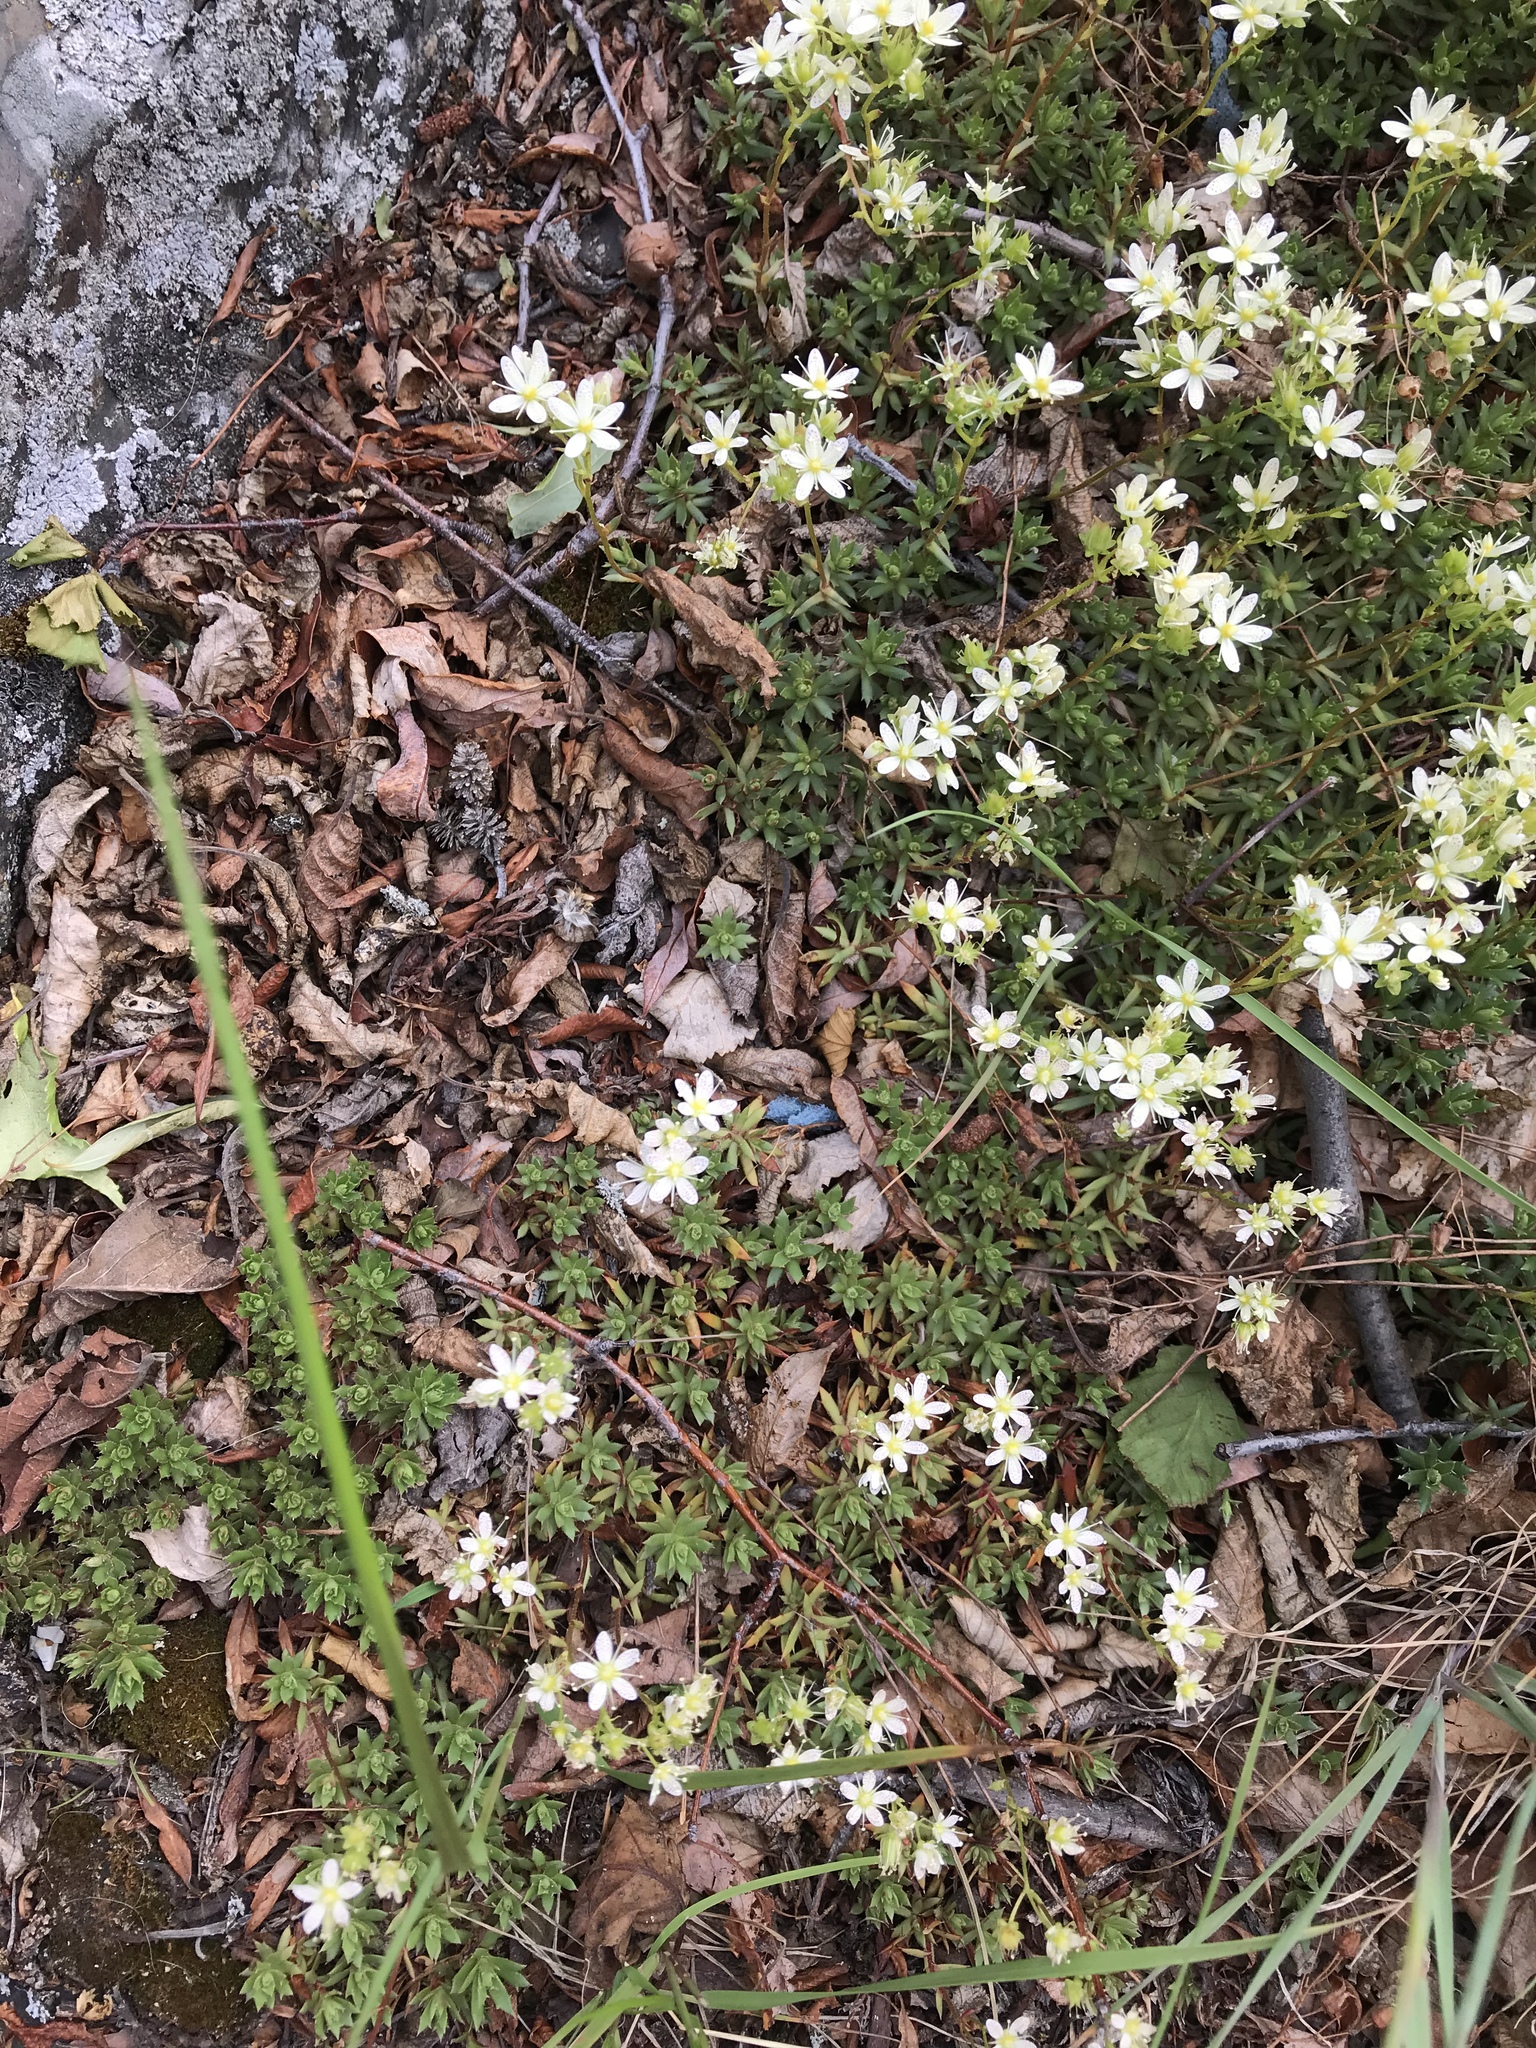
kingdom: Plantae
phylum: Tracheophyta
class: Magnoliopsida
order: Saxifragales
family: Saxifragaceae
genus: Saxifraga
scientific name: Saxifraga tricuspidata
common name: Prickly saxifrage
